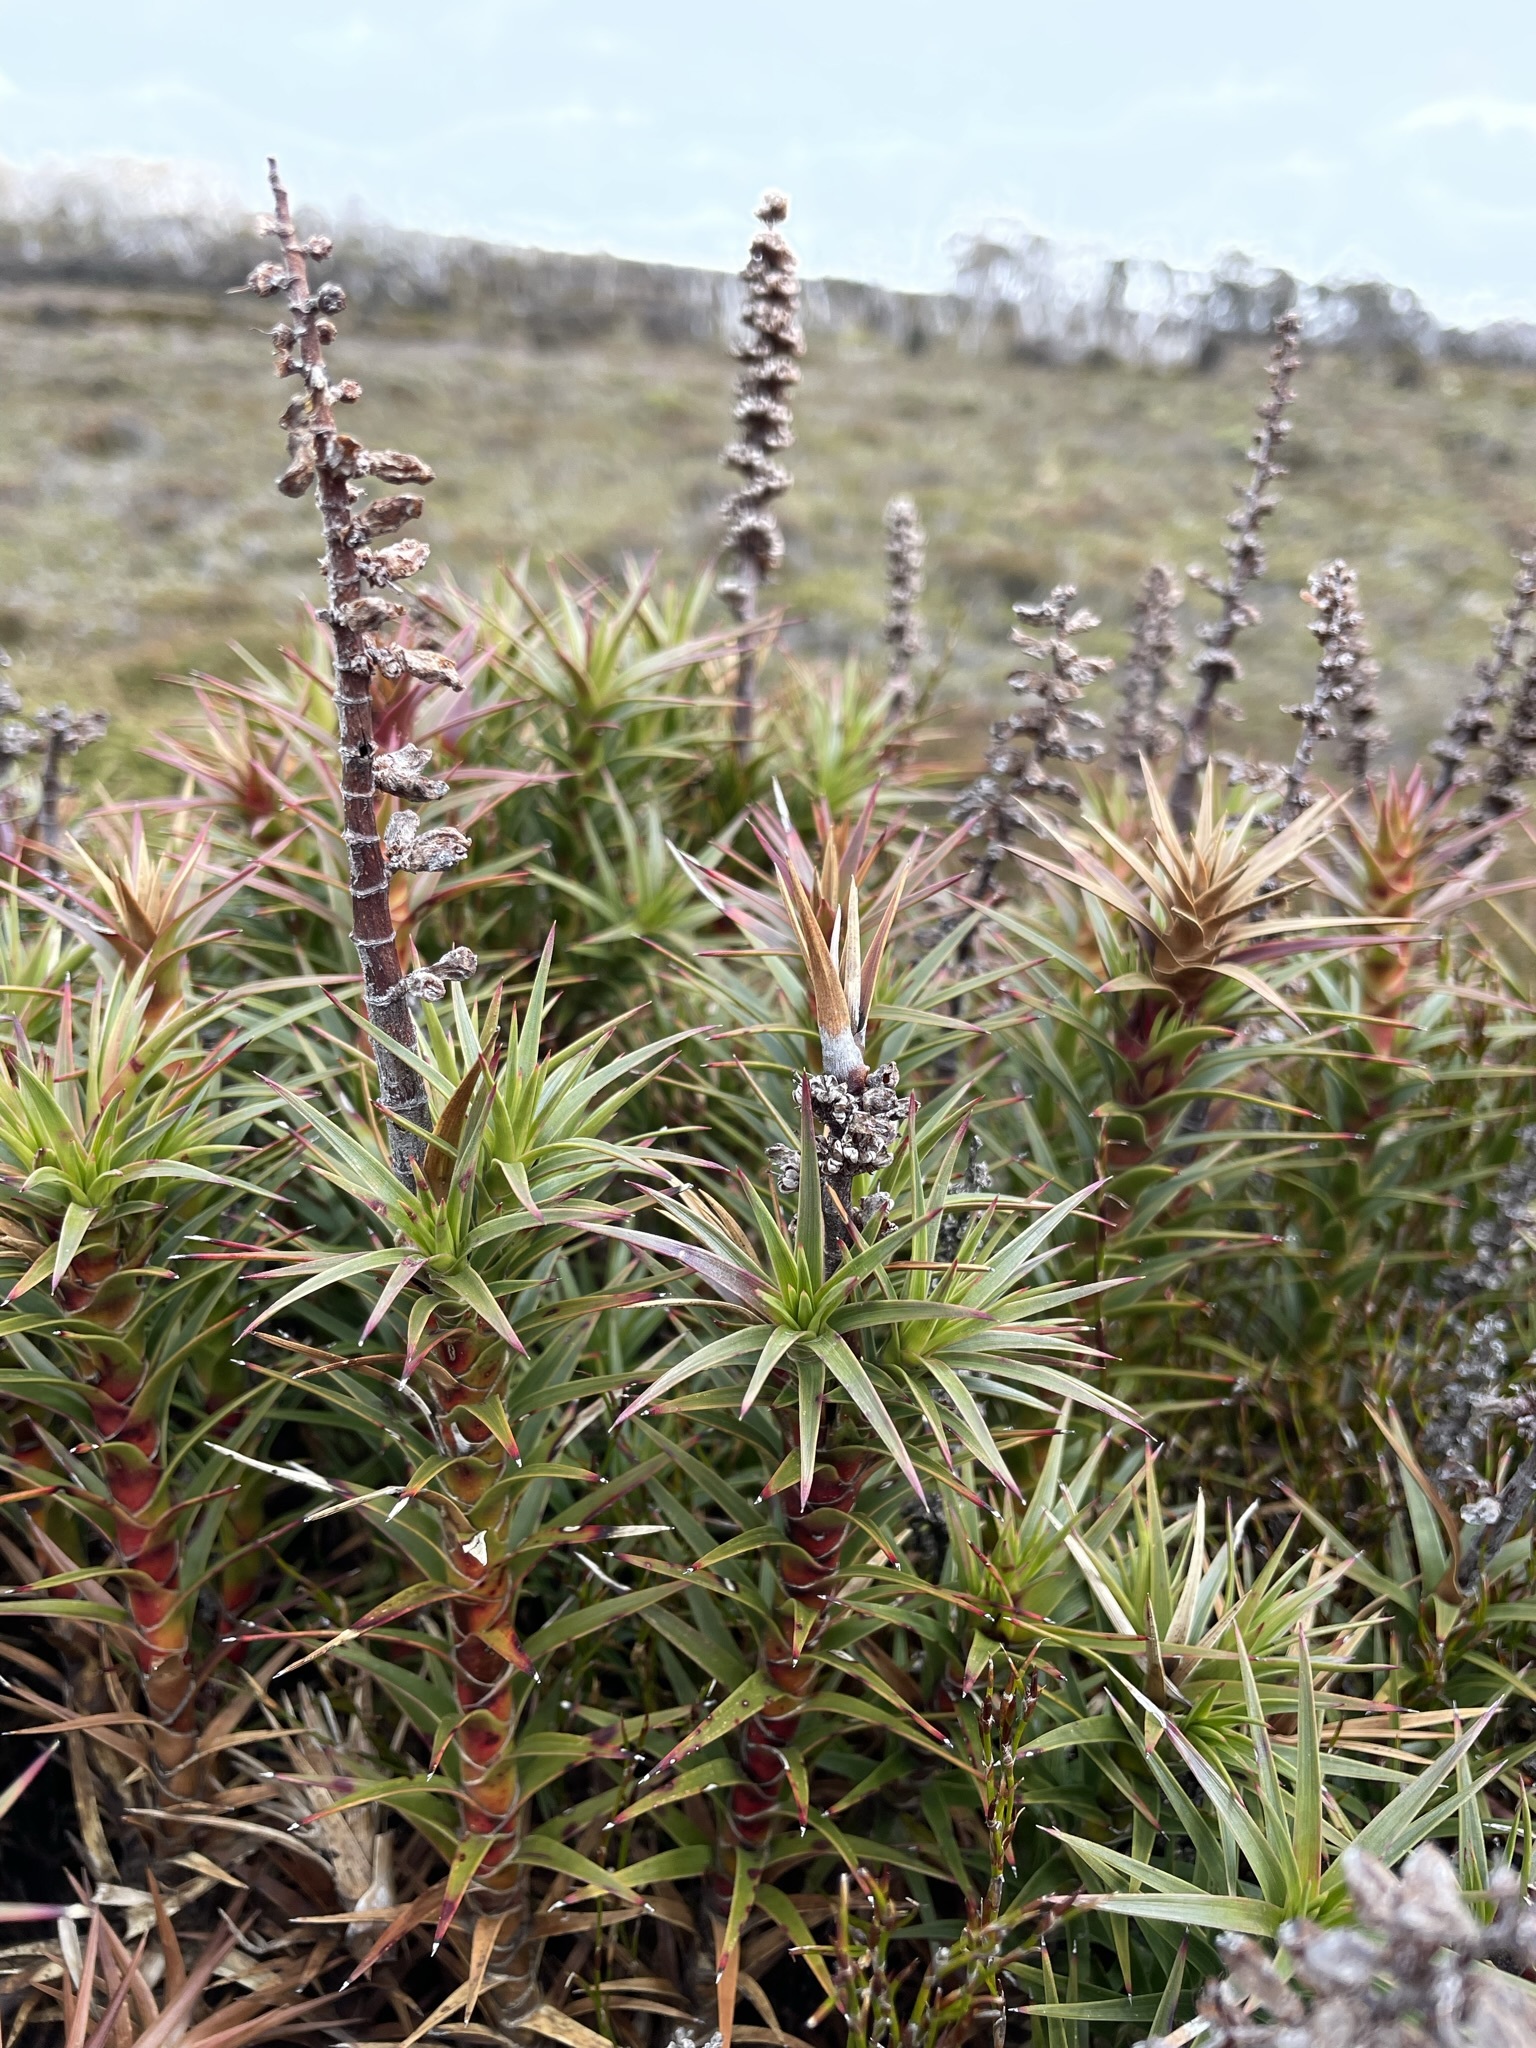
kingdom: Plantae
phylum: Tracheophyta
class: Magnoliopsida
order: Ericales
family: Ericaceae
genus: Dracophyllum
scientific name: Dracophyllum persistentifolium
